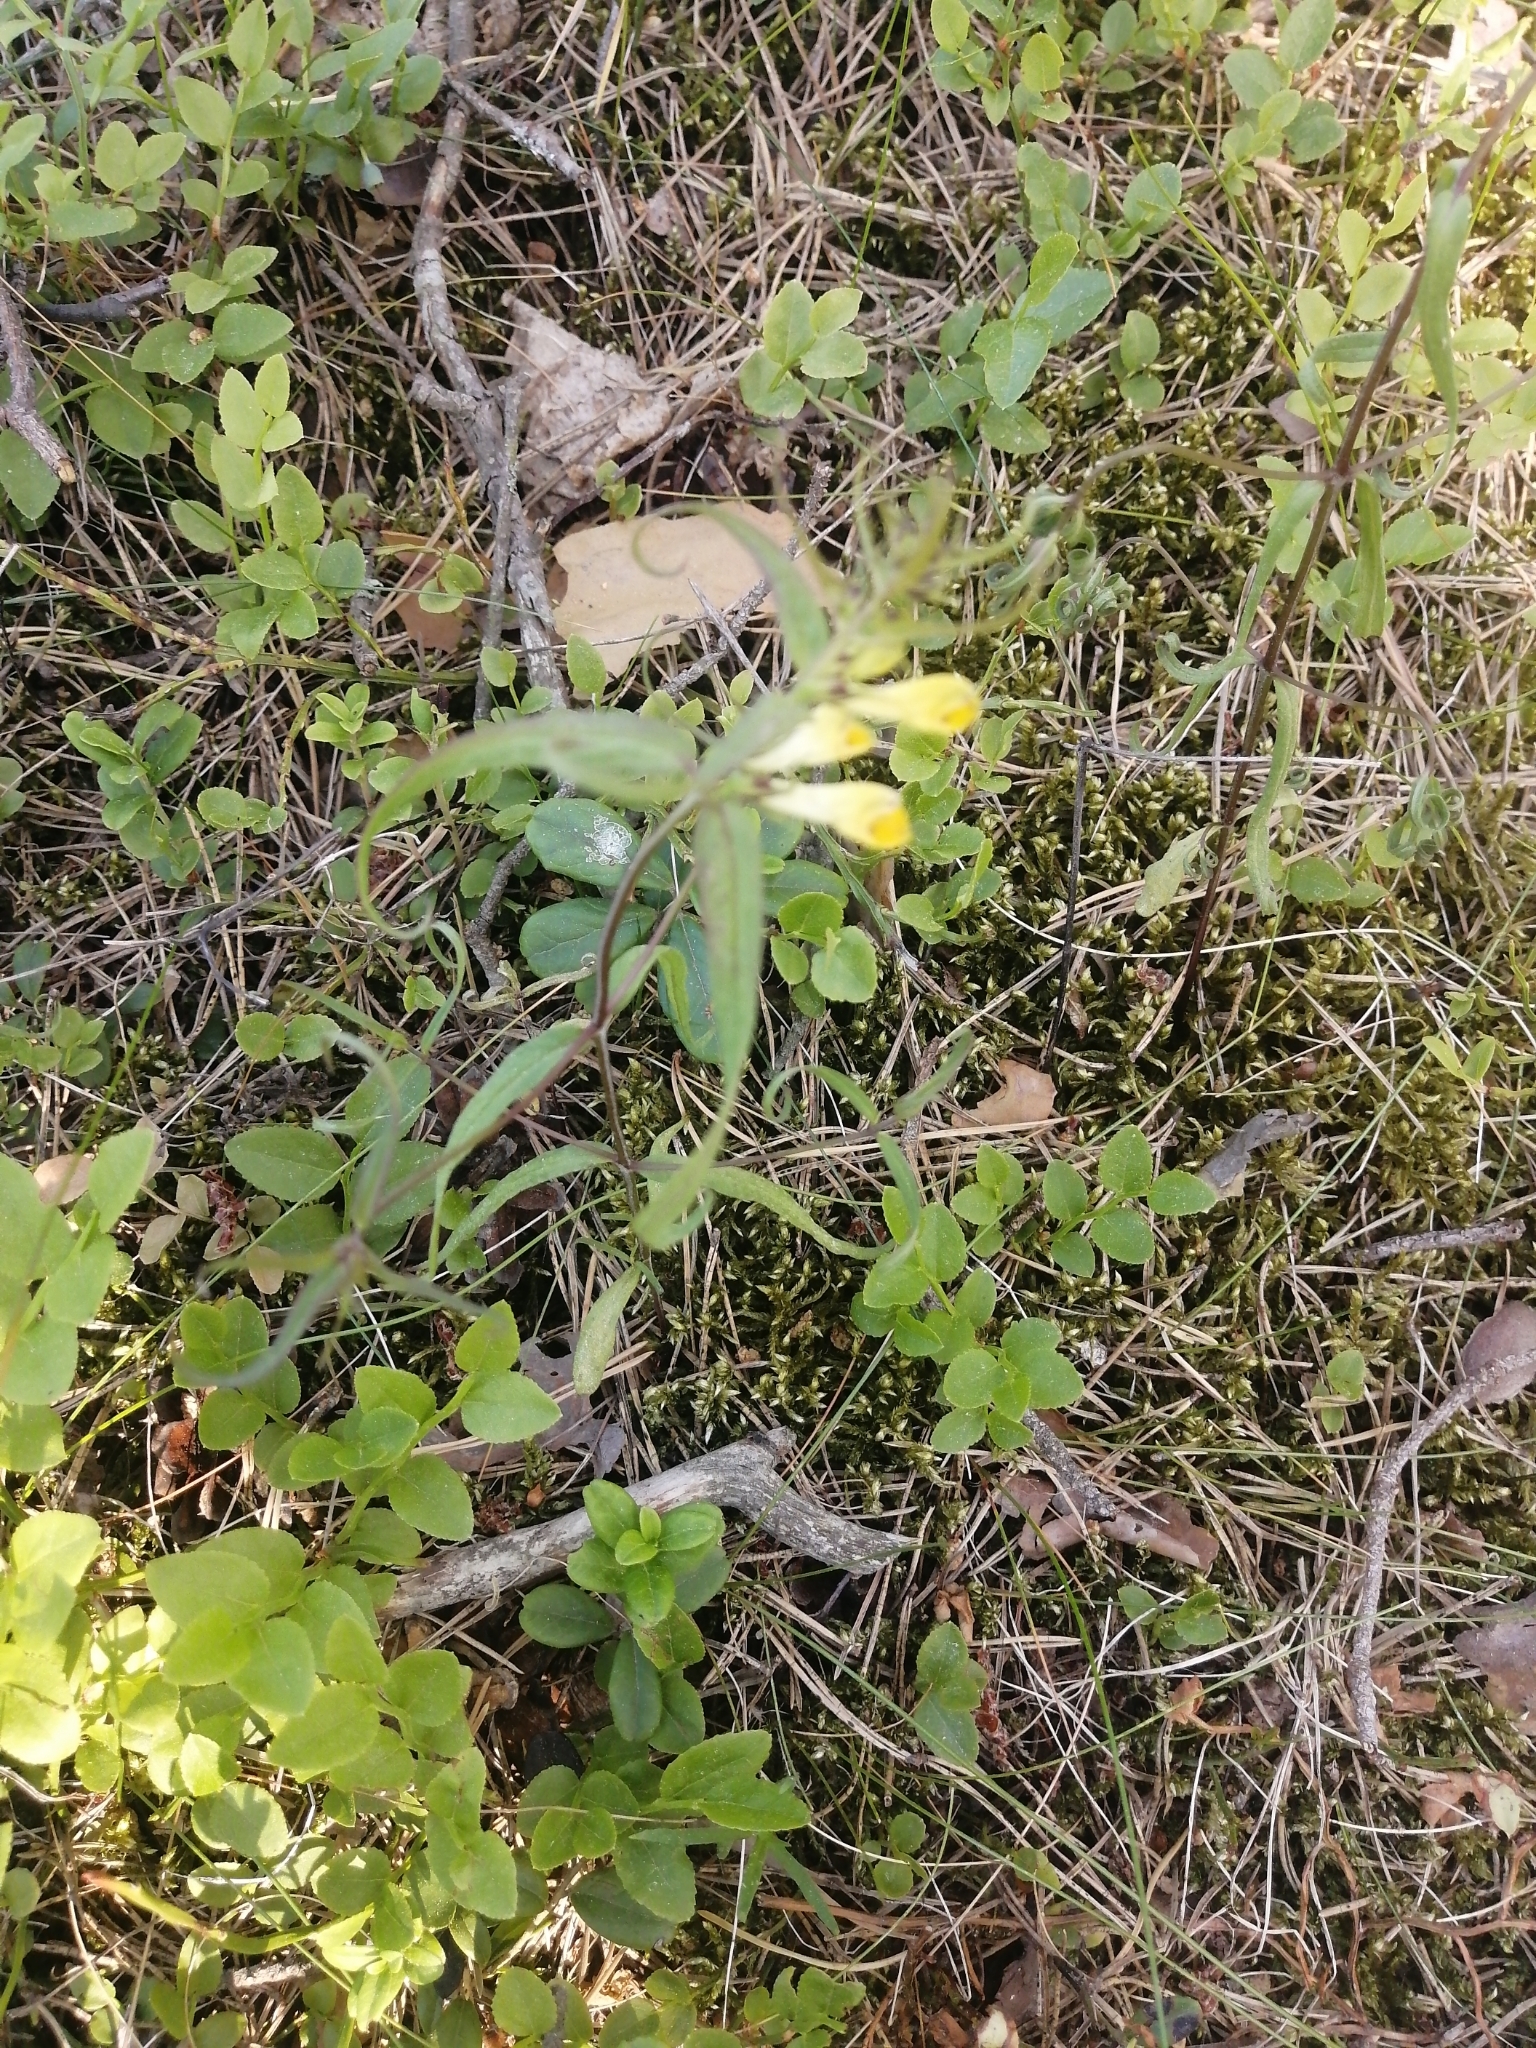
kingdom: Plantae
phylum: Tracheophyta
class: Magnoliopsida
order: Lamiales
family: Orobanchaceae
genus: Melampyrum
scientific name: Melampyrum pratense
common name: Common cow-wheat
